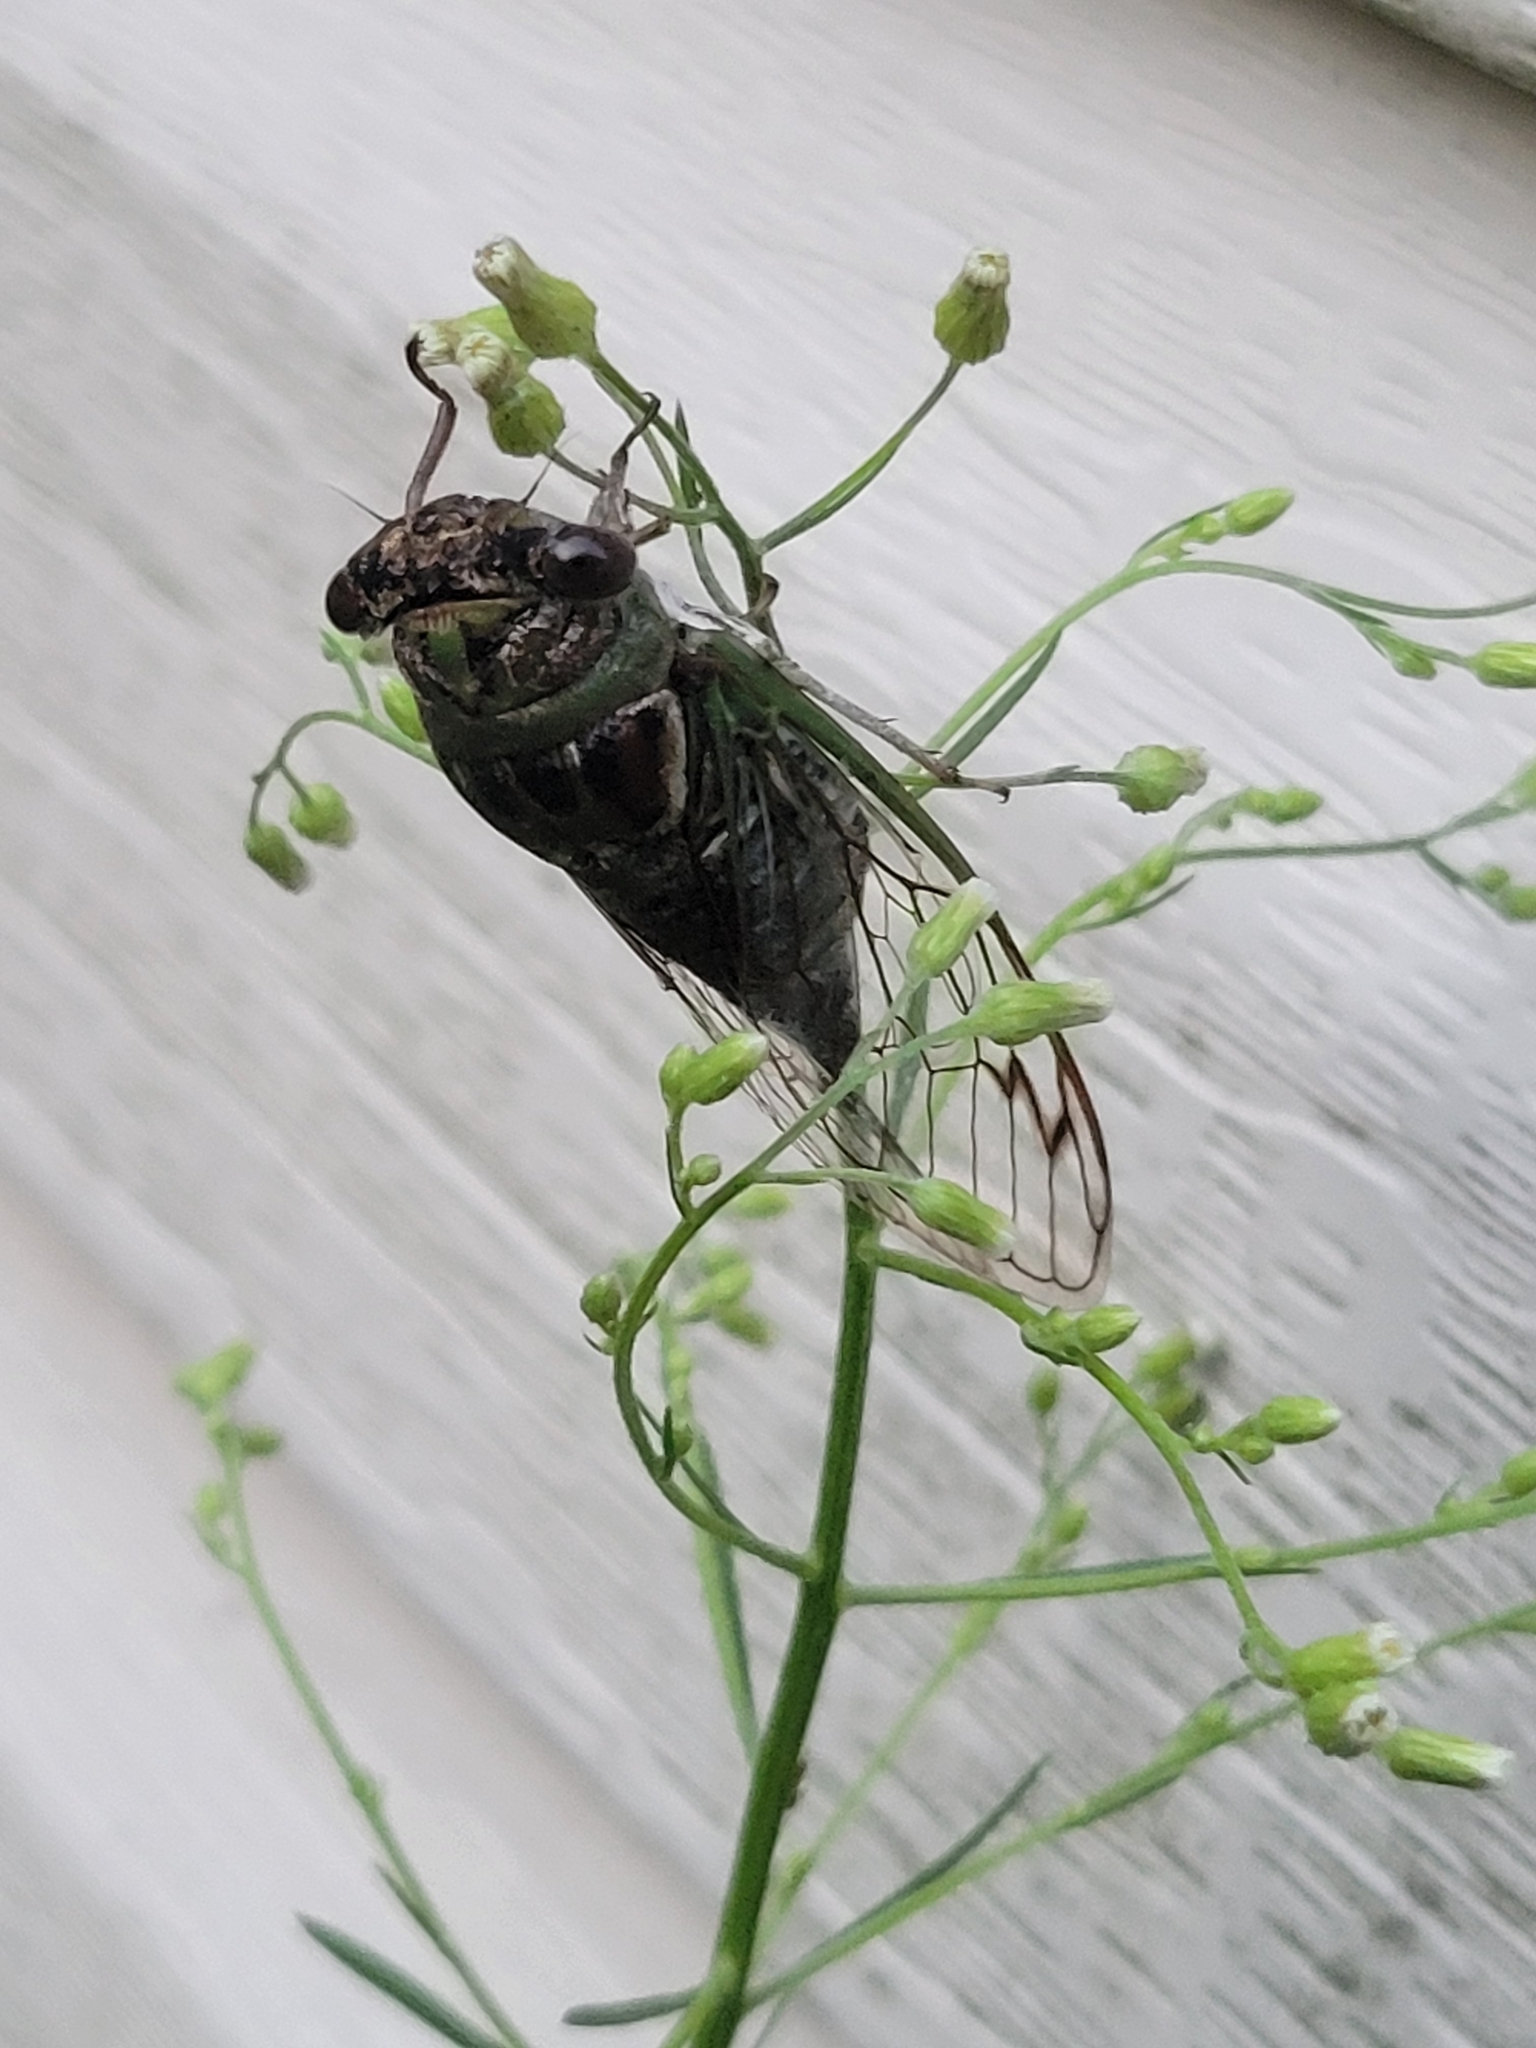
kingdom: Animalia
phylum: Arthropoda
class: Insecta
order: Hemiptera
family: Cicadidae
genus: Neotibicen
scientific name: Neotibicen davisi
